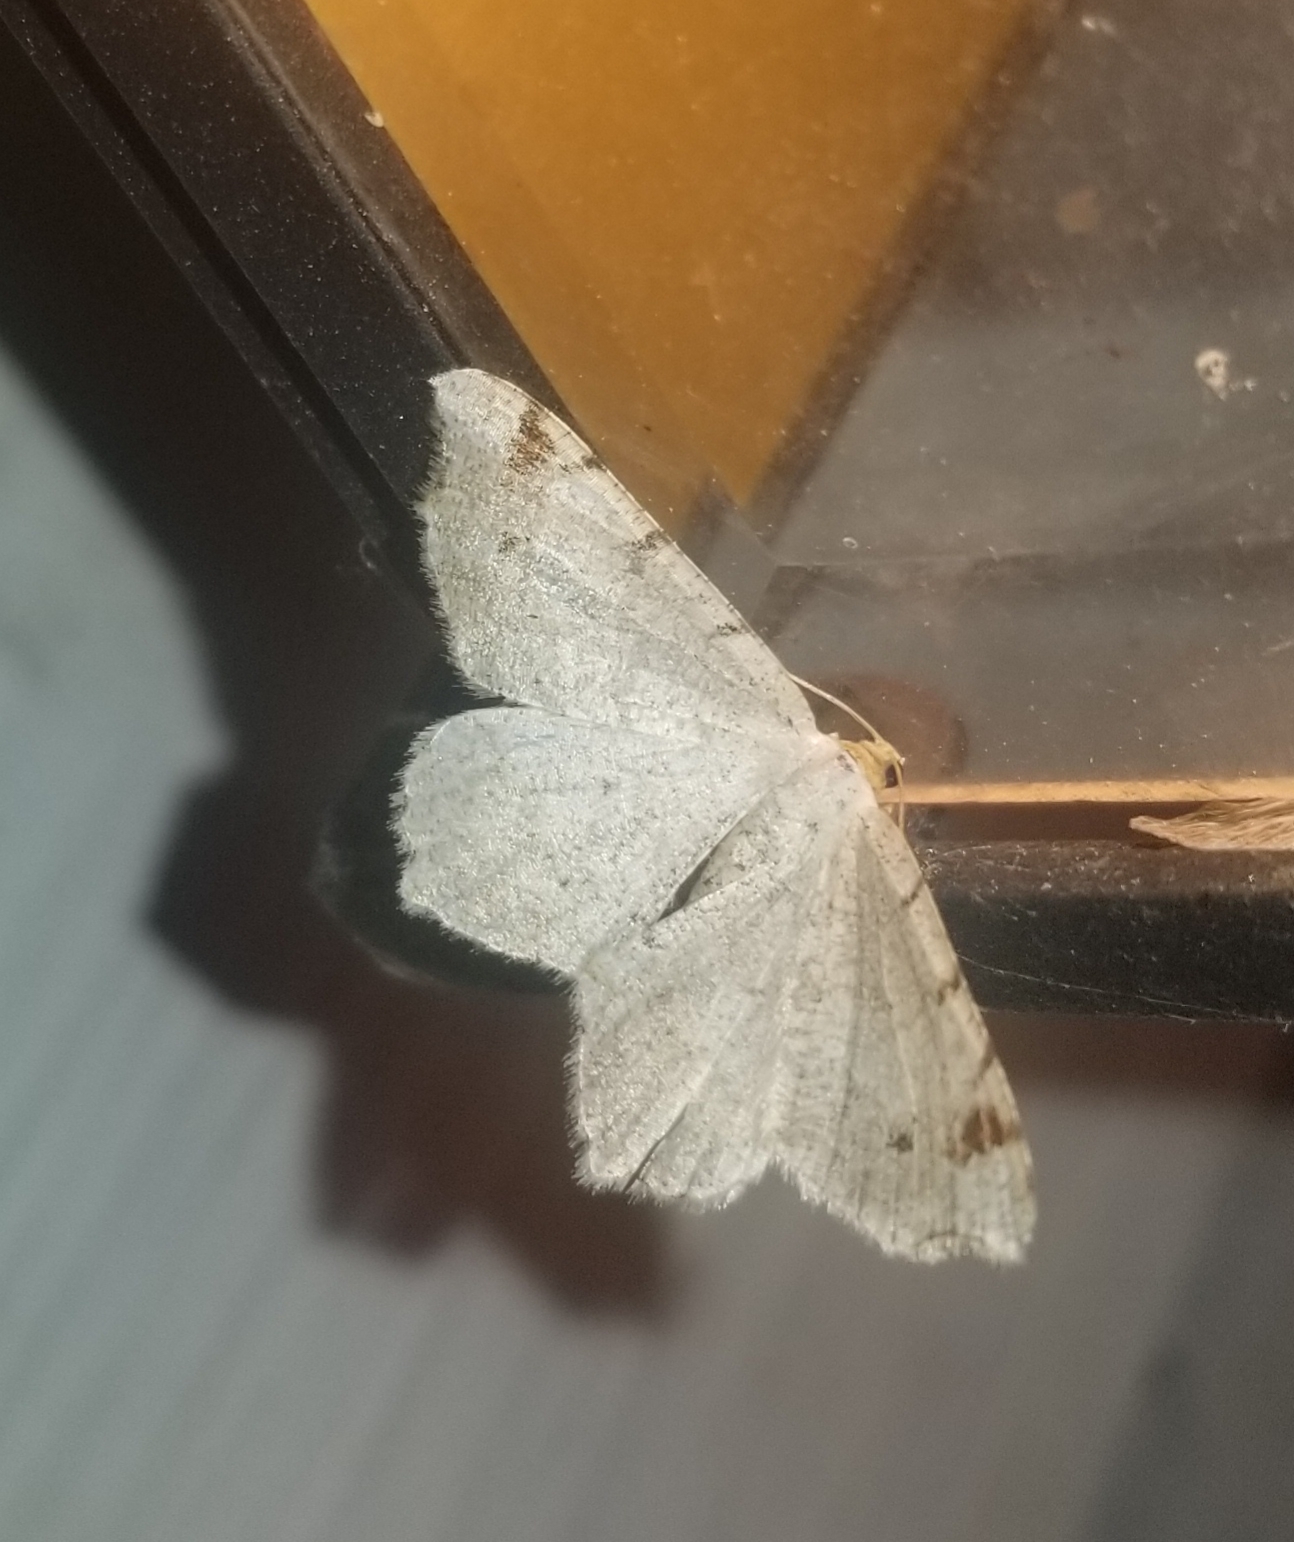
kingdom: Animalia
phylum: Arthropoda
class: Insecta
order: Lepidoptera
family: Geometridae
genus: Macaria
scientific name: Macaria bisignata
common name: Red-headed inchworm
